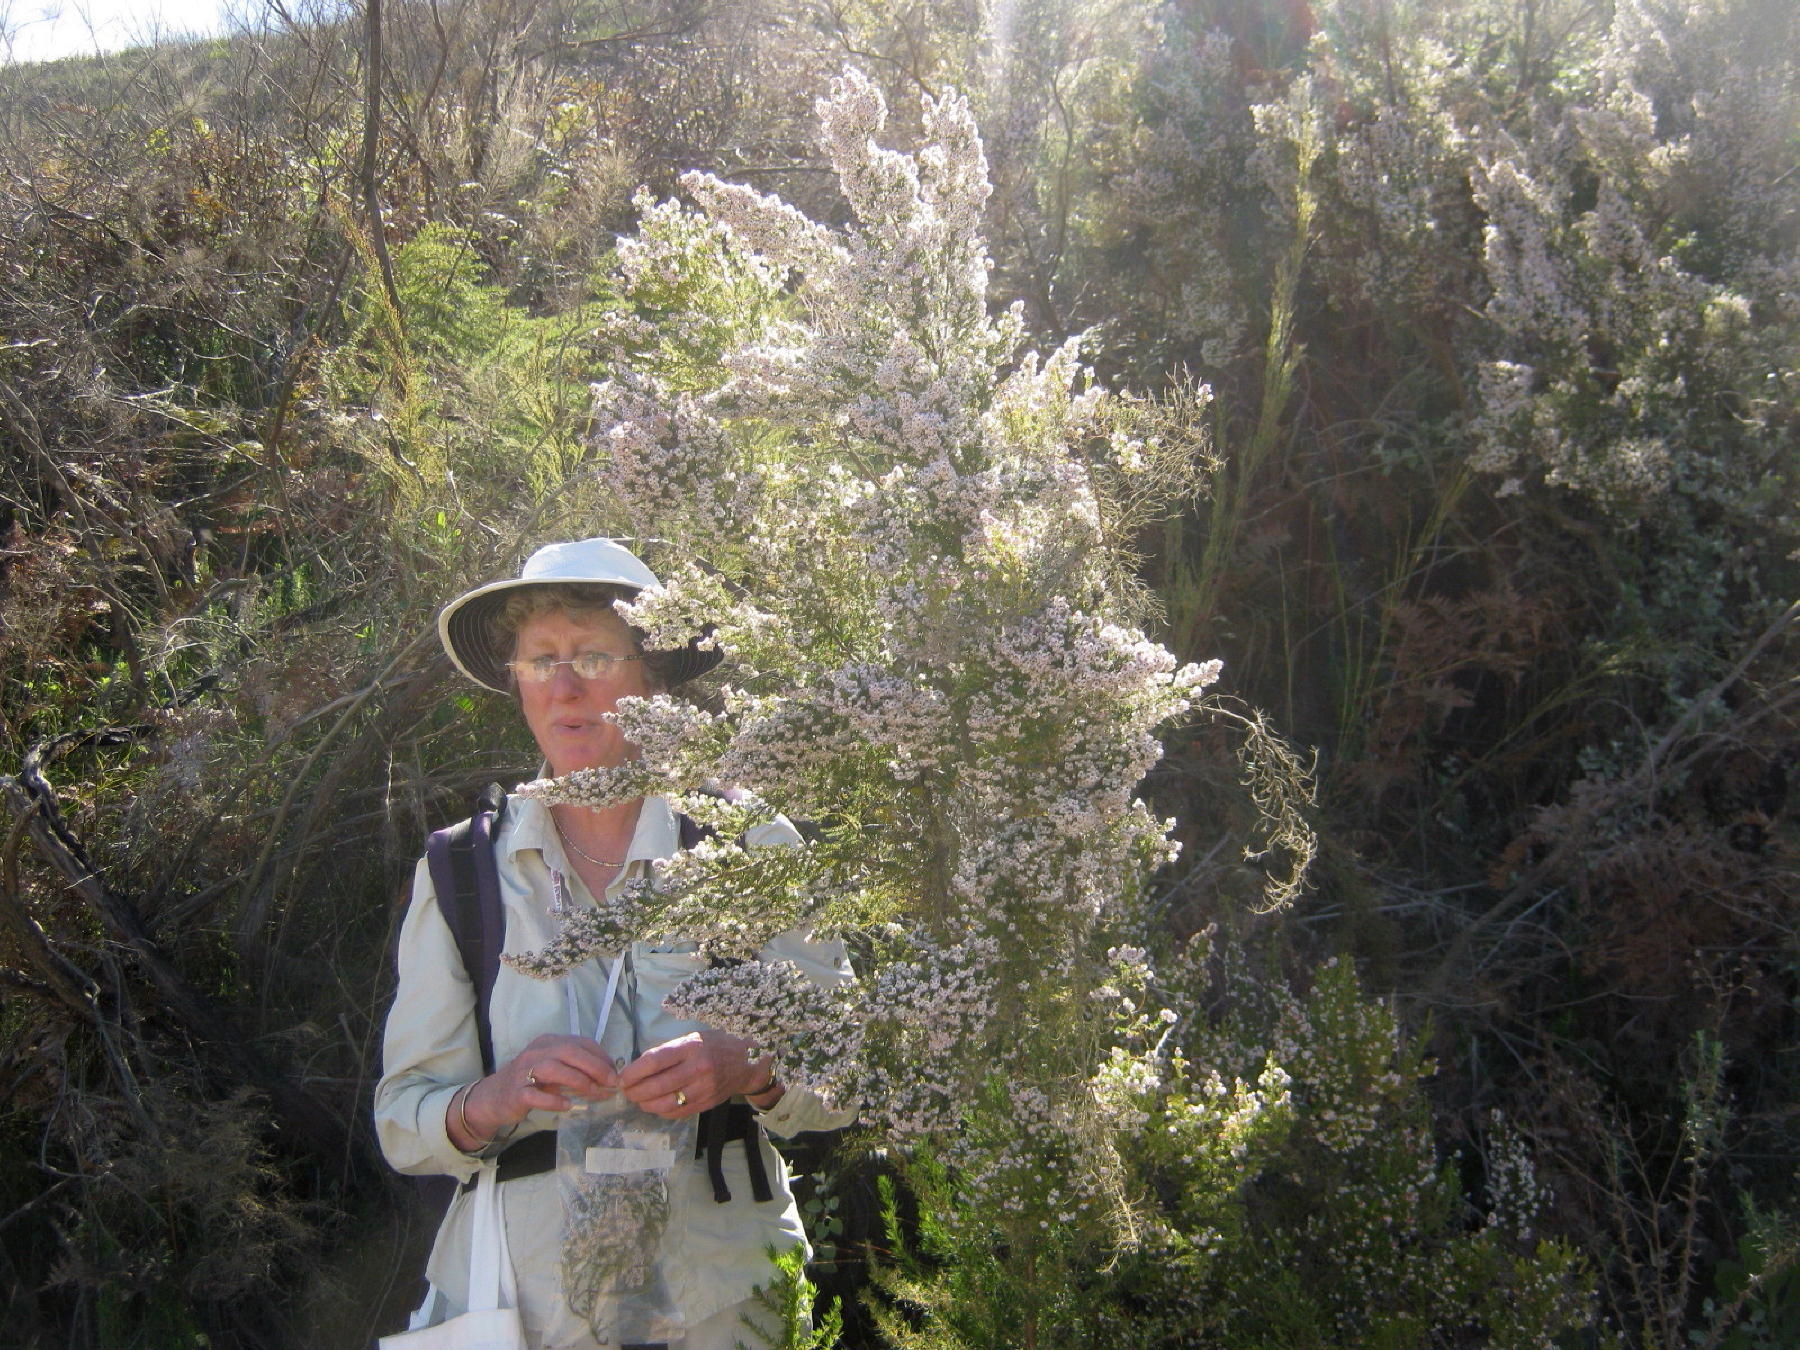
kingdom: Plantae
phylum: Tracheophyta
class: Magnoliopsida
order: Ericales
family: Ericaceae
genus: Erica
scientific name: Erica scabriuscula
